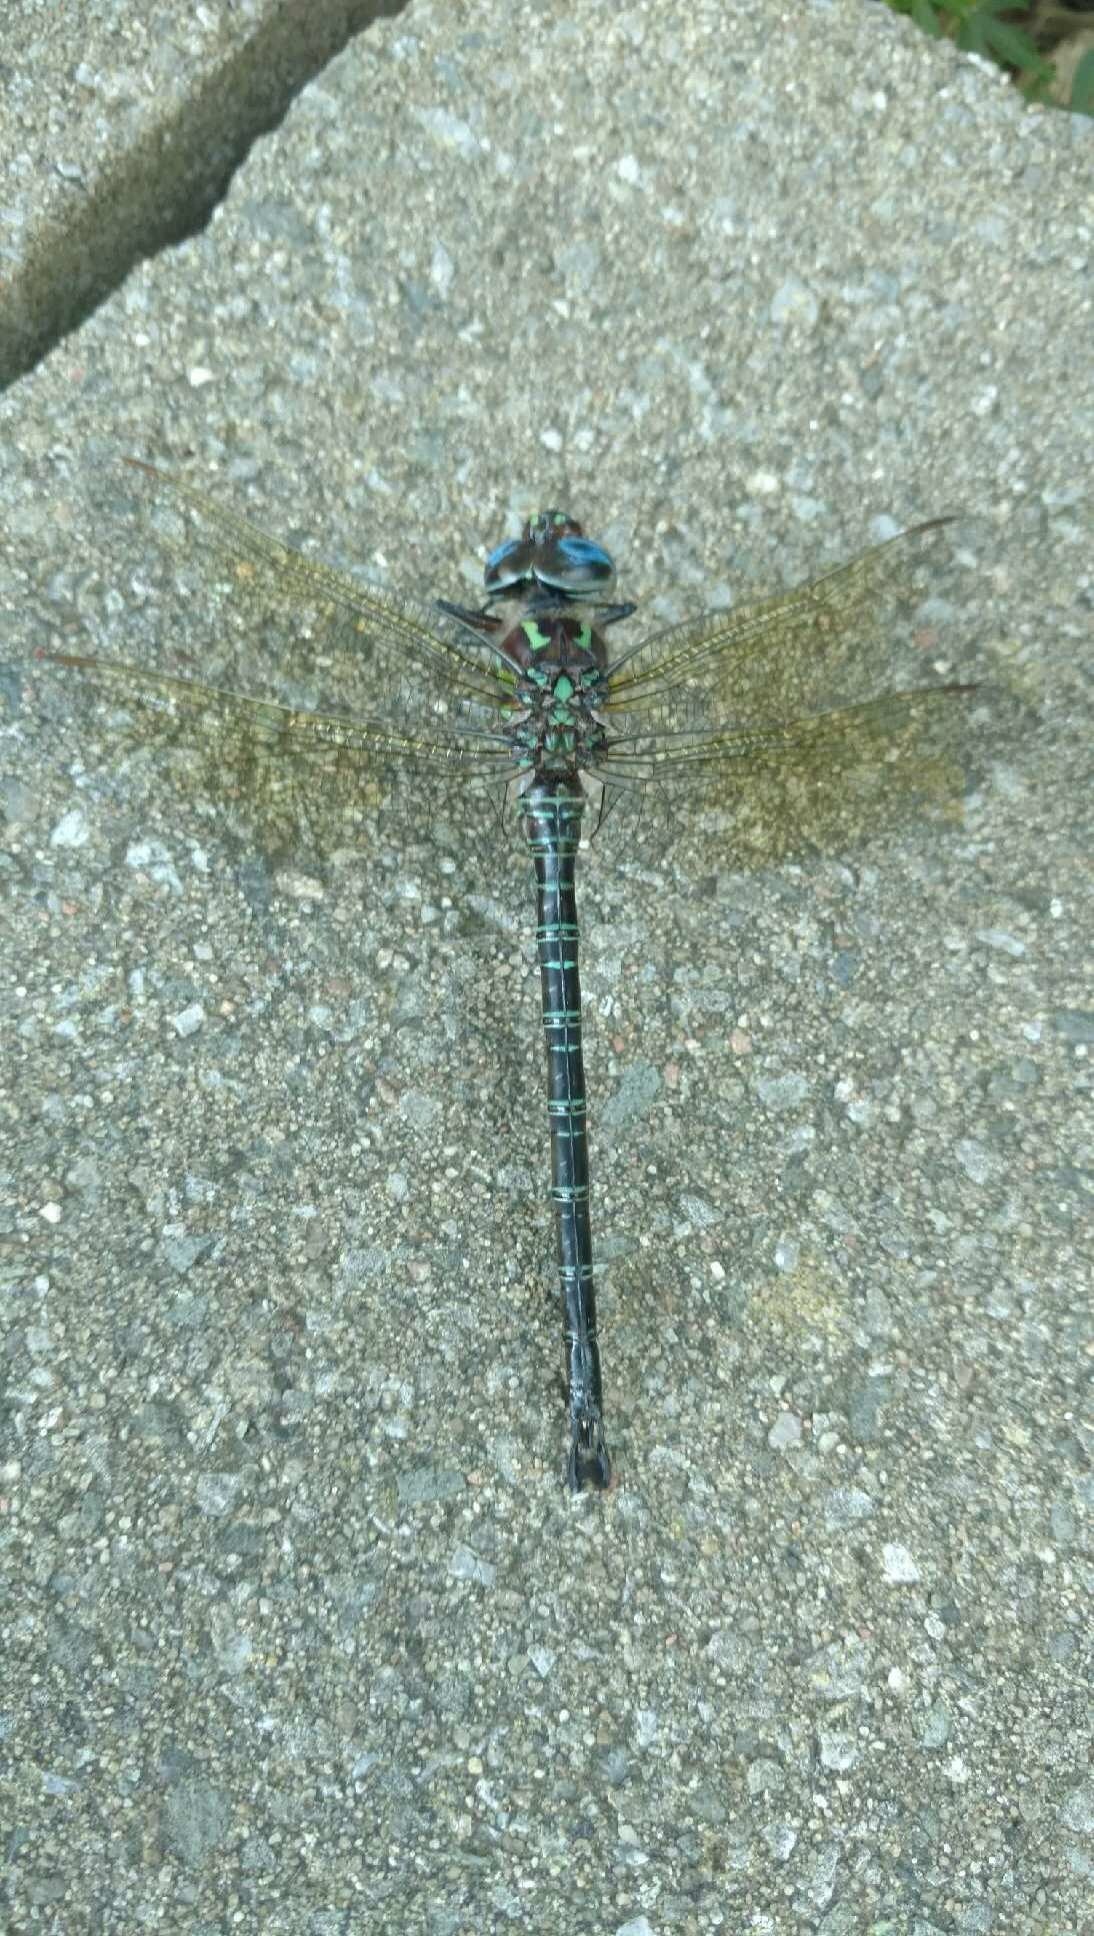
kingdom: Animalia
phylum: Arthropoda
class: Insecta
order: Odonata
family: Aeshnidae
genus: Epiaeschna
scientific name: Epiaeschna heros
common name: Swamp darner
